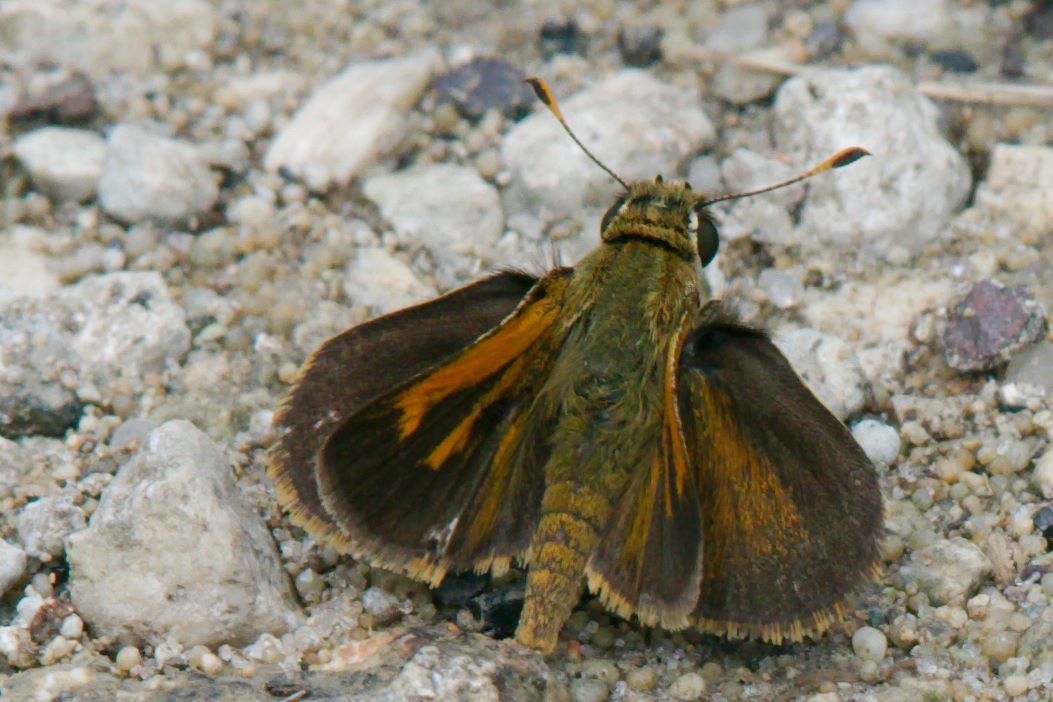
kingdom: Animalia
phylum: Arthropoda
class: Insecta
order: Lepidoptera
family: Hesperiidae
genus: Polites
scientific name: Polites baracoa
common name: Baracoa skipper
